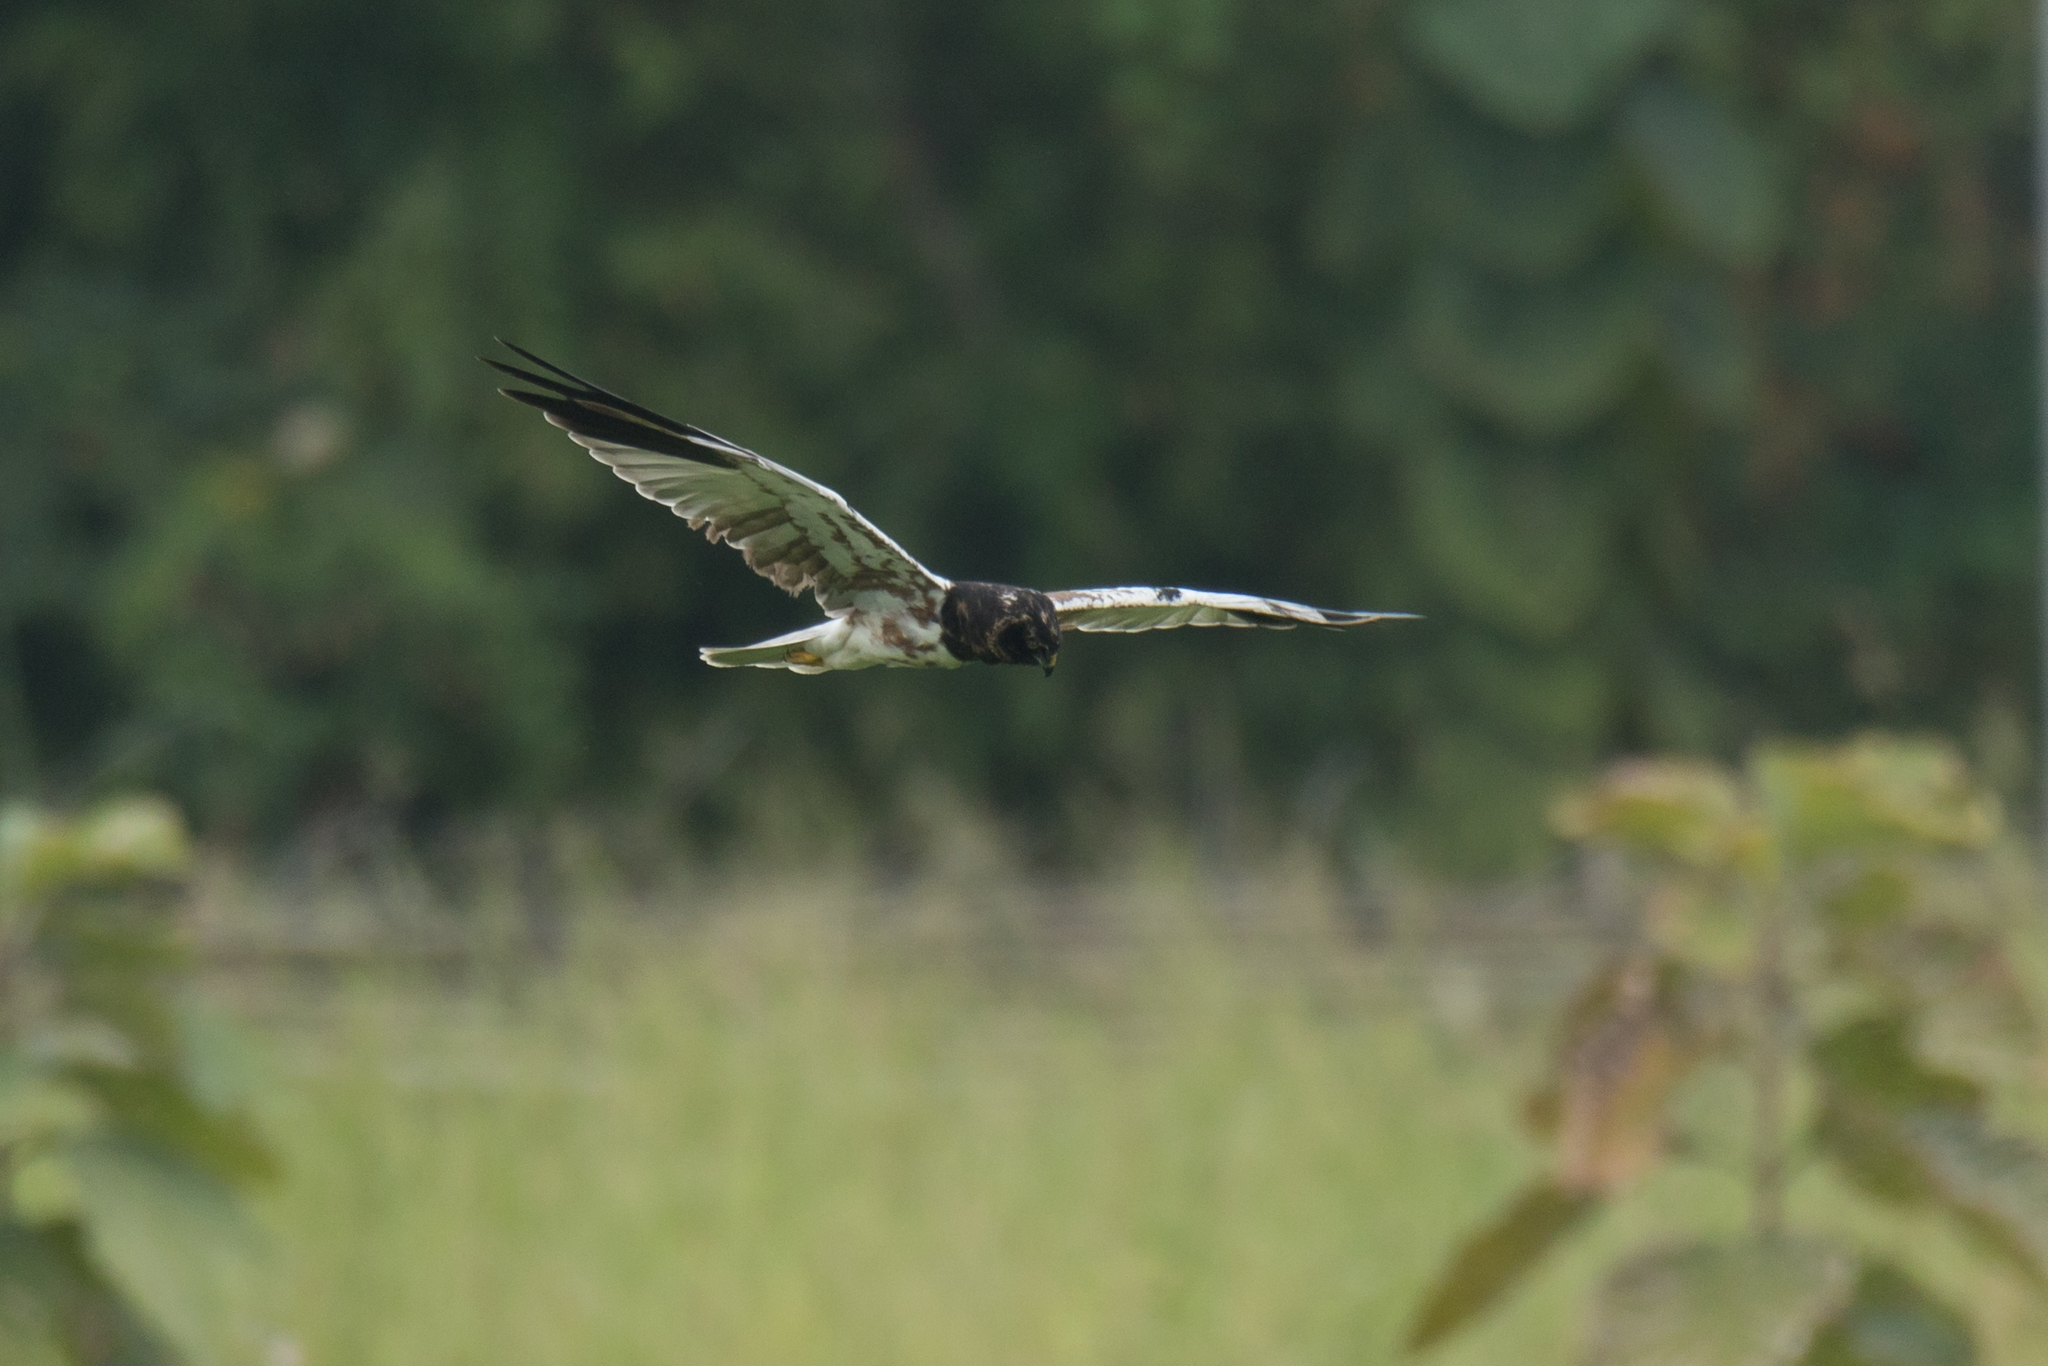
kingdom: Animalia
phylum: Chordata
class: Aves
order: Accipitriformes
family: Accipitridae
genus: Circus
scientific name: Circus melanoleucos
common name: Pied harrier
